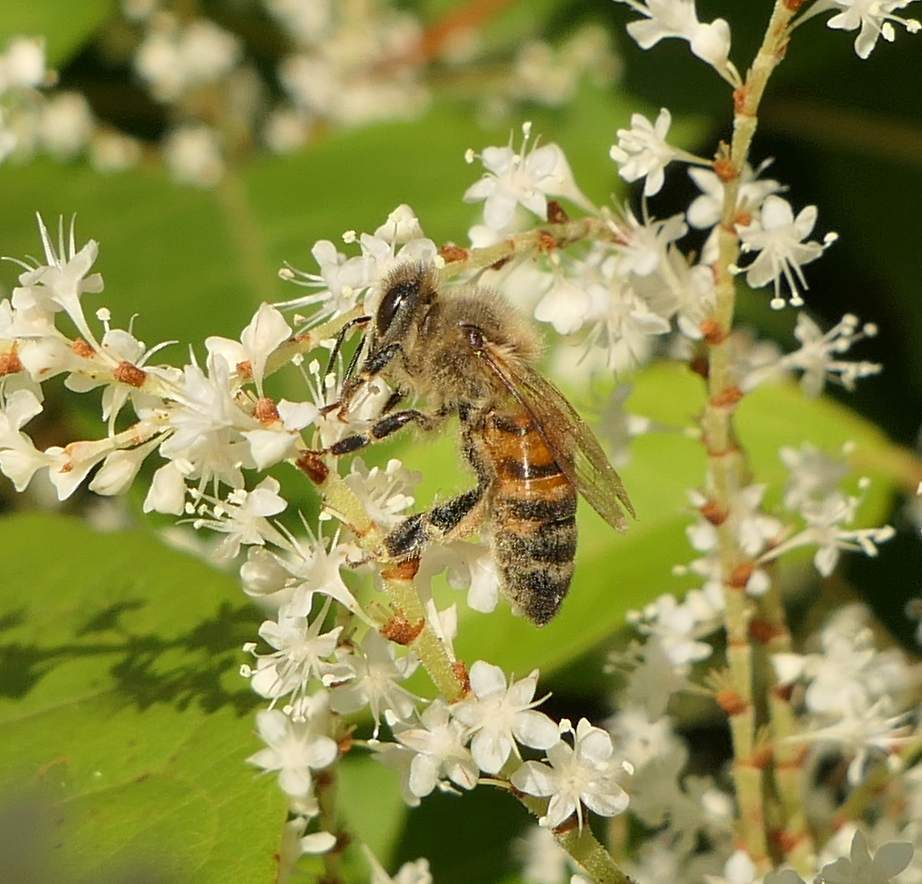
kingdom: Animalia
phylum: Arthropoda
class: Insecta
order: Hymenoptera
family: Apidae
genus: Apis
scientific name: Apis mellifera
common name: Honey bee
